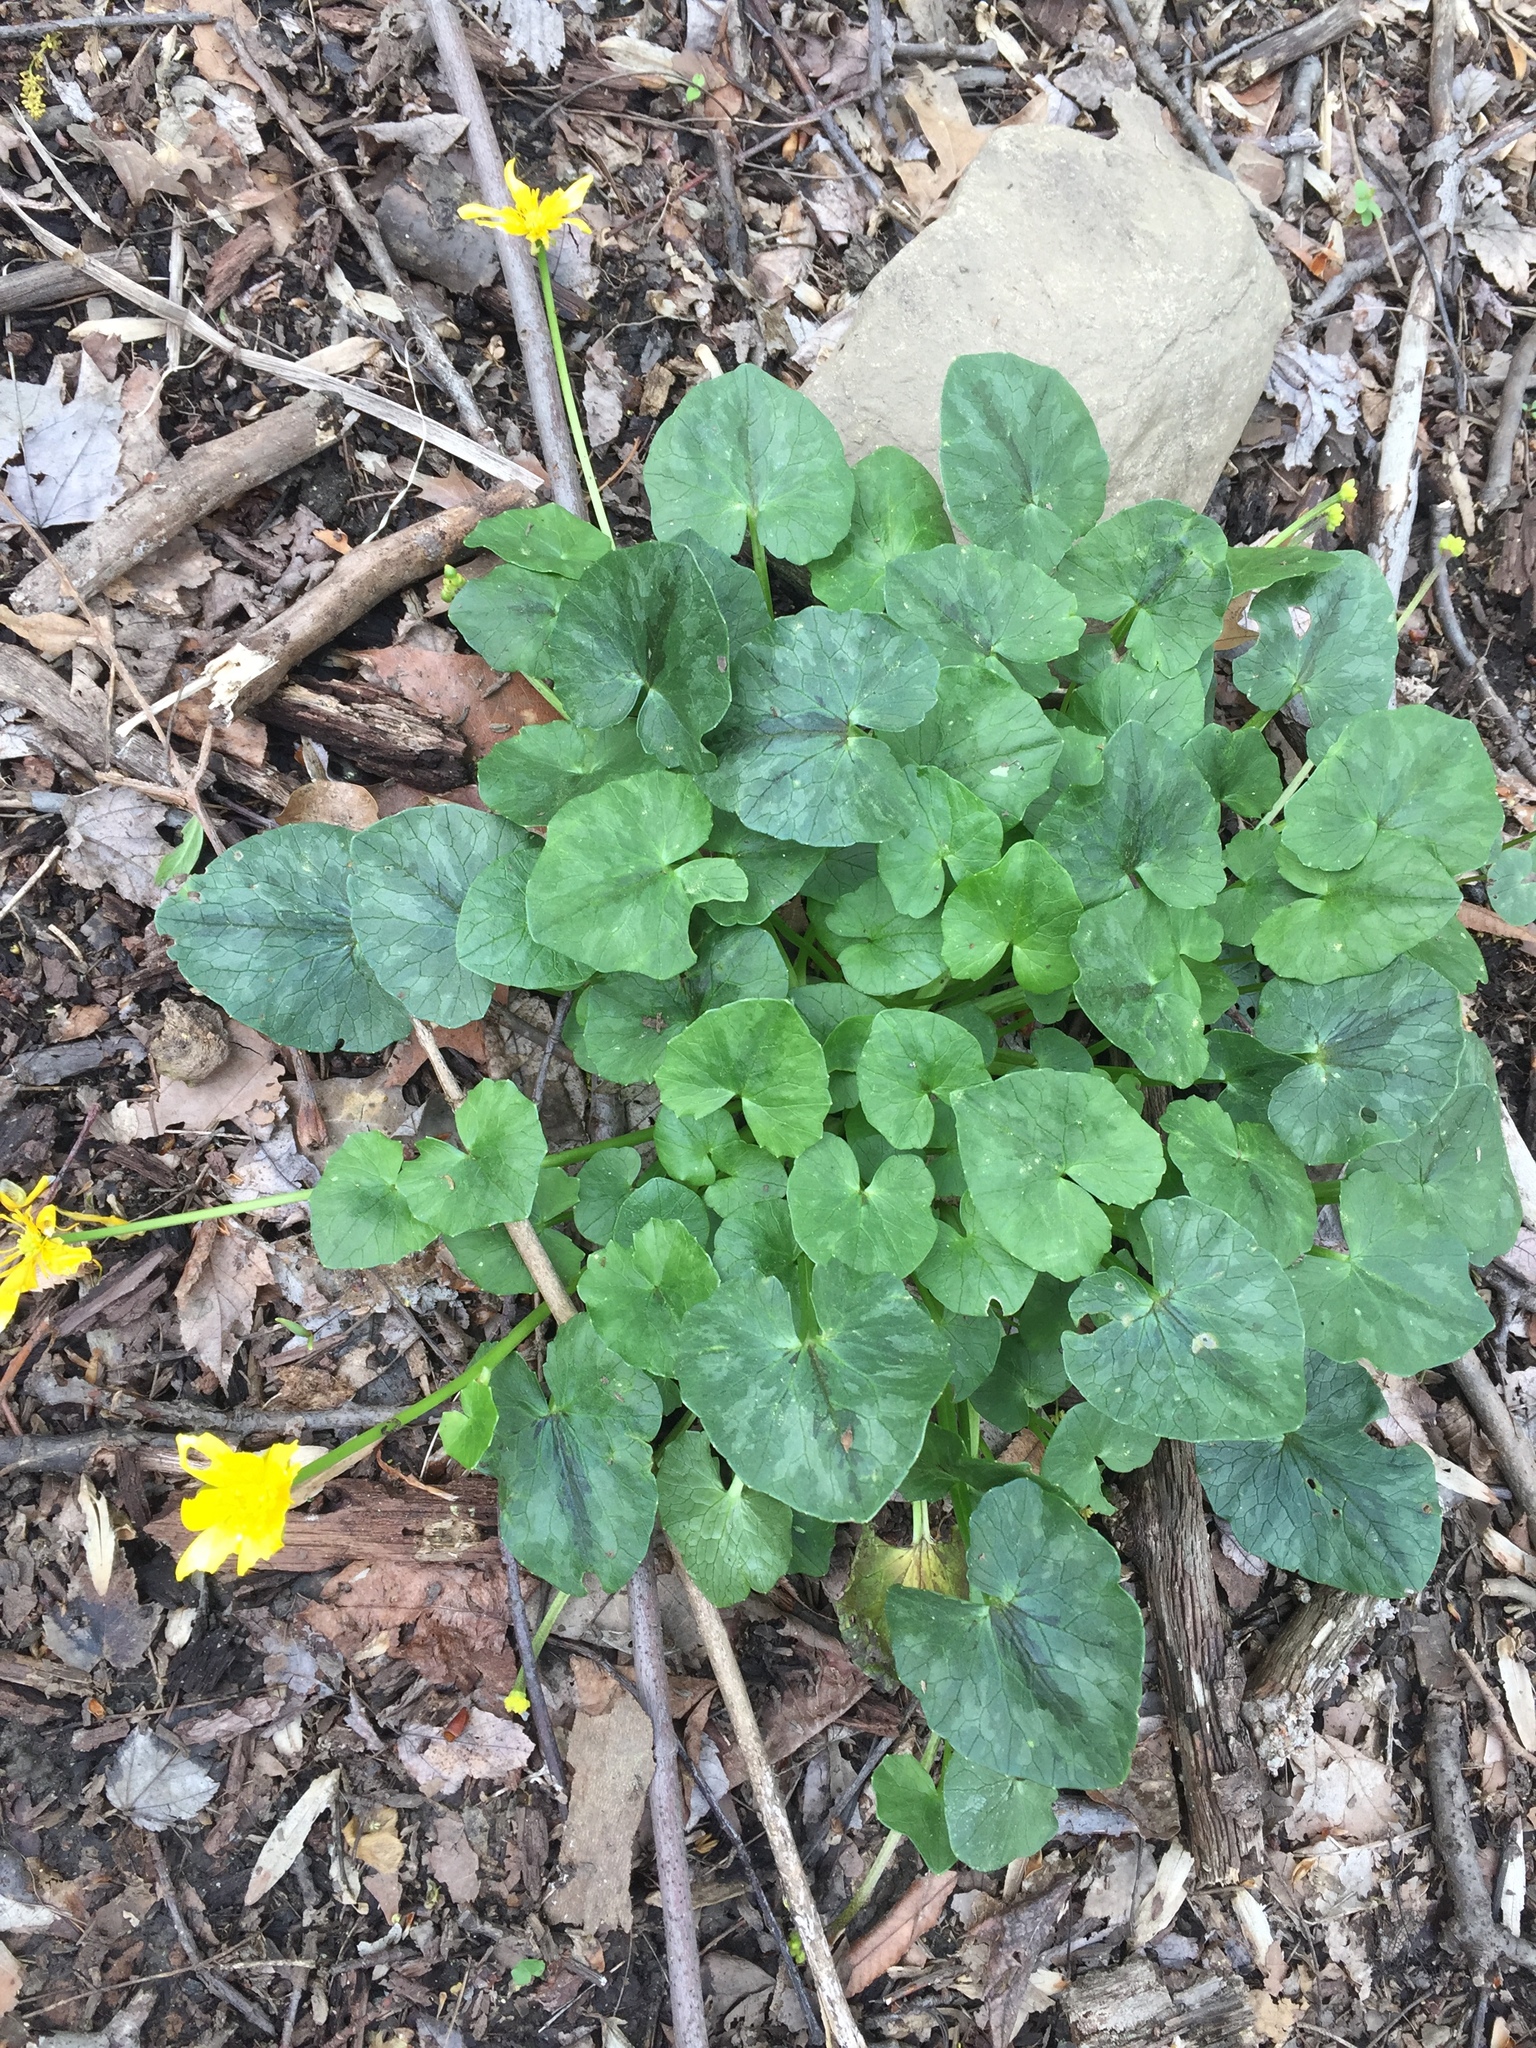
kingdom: Plantae
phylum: Tracheophyta
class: Magnoliopsida
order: Ranunculales
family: Ranunculaceae
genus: Ficaria
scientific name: Ficaria verna
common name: Lesser celandine
